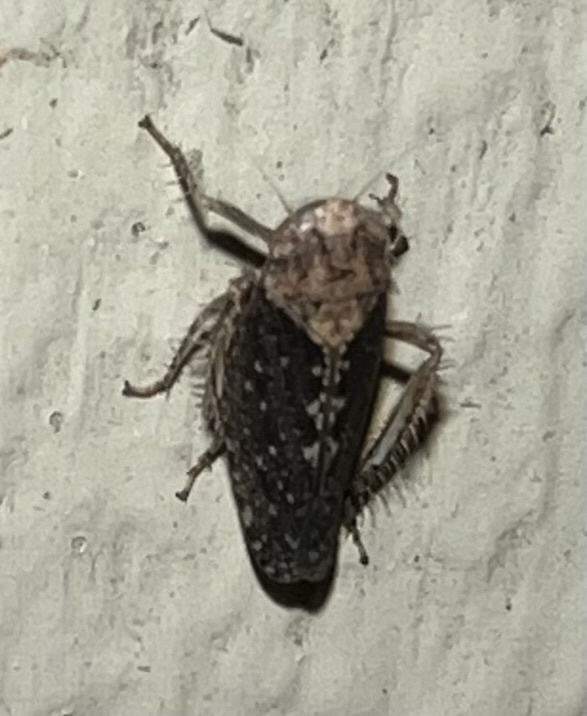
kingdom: Animalia
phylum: Arthropoda
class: Insecta
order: Hemiptera
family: Cicadellidae
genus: Excultanus
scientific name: Excultanus excultus
